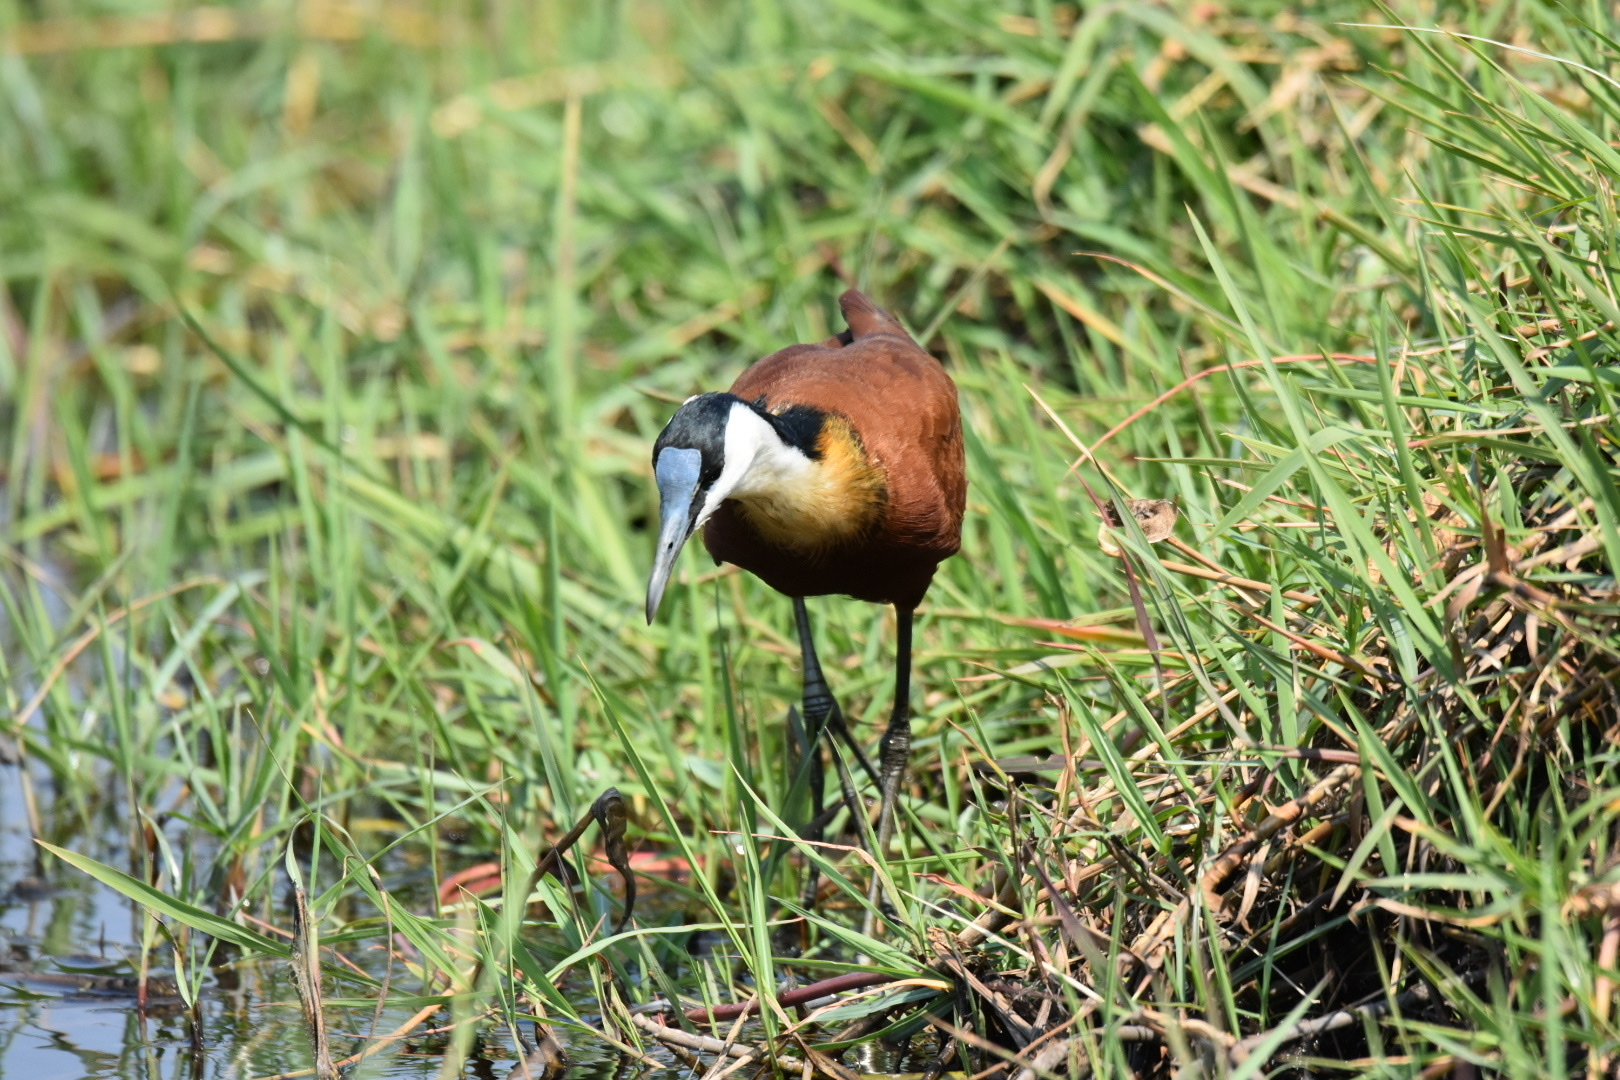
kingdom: Animalia
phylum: Chordata
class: Aves
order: Charadriiformes
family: Jacanidae
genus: Actophilornis
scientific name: Actophilornis africanus
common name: African jacana
